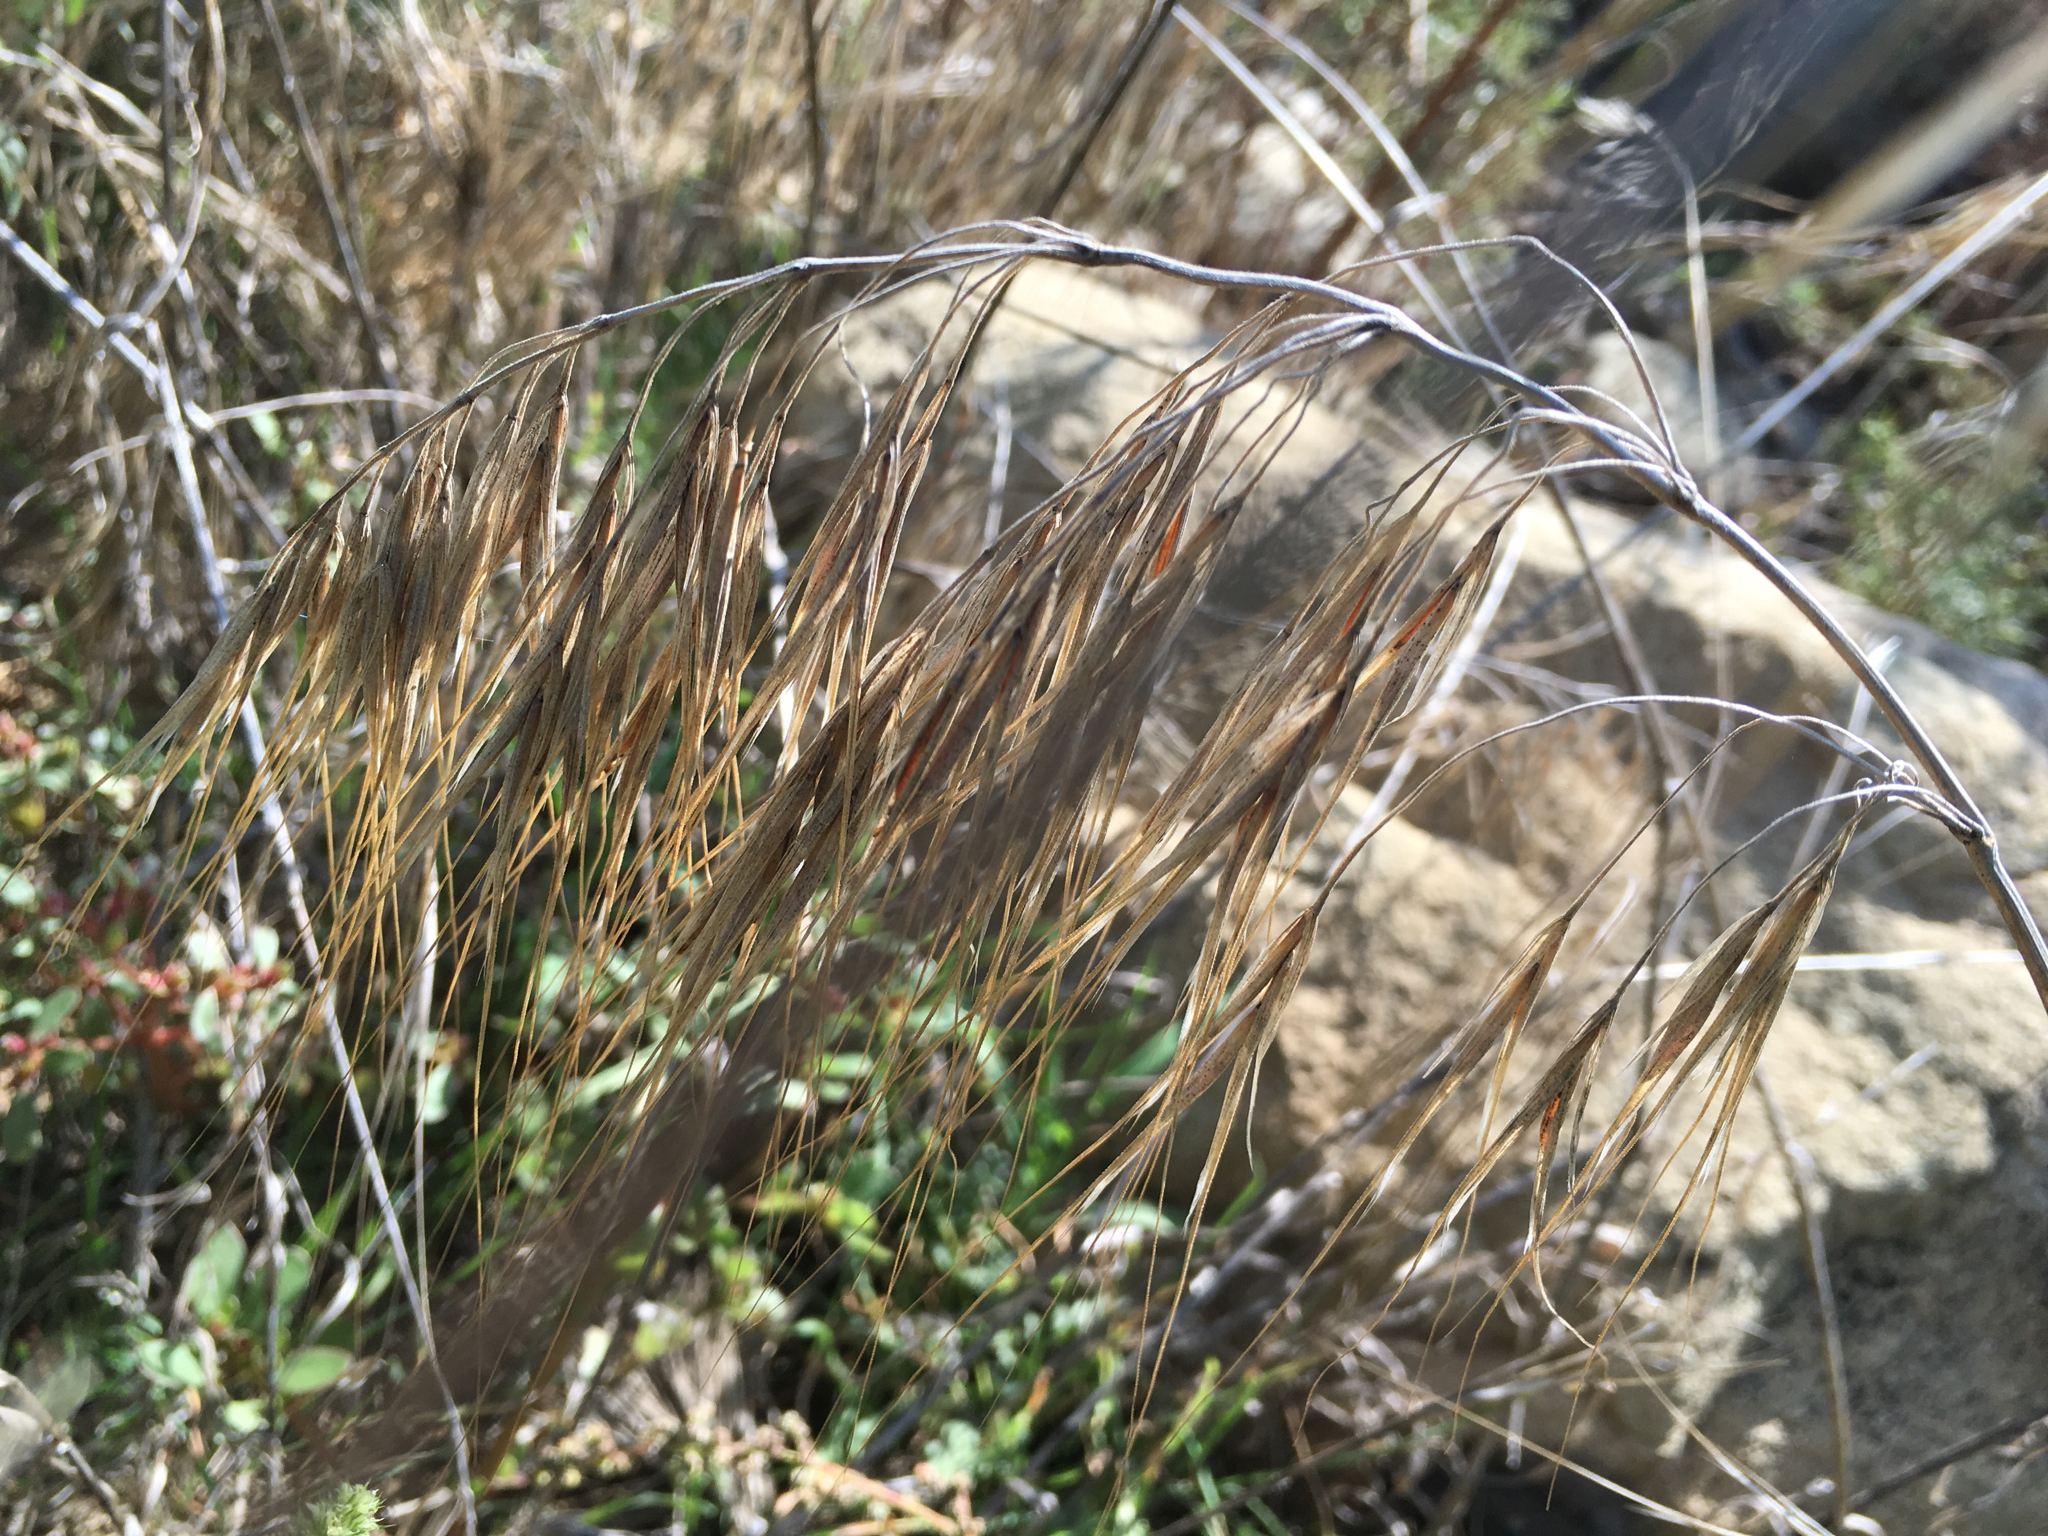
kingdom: Plantae
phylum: Tracheophyta
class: Liliopsida
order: Poales
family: Poaceae
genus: Bromus
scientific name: Bromus diandrus
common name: Ripgut brome
